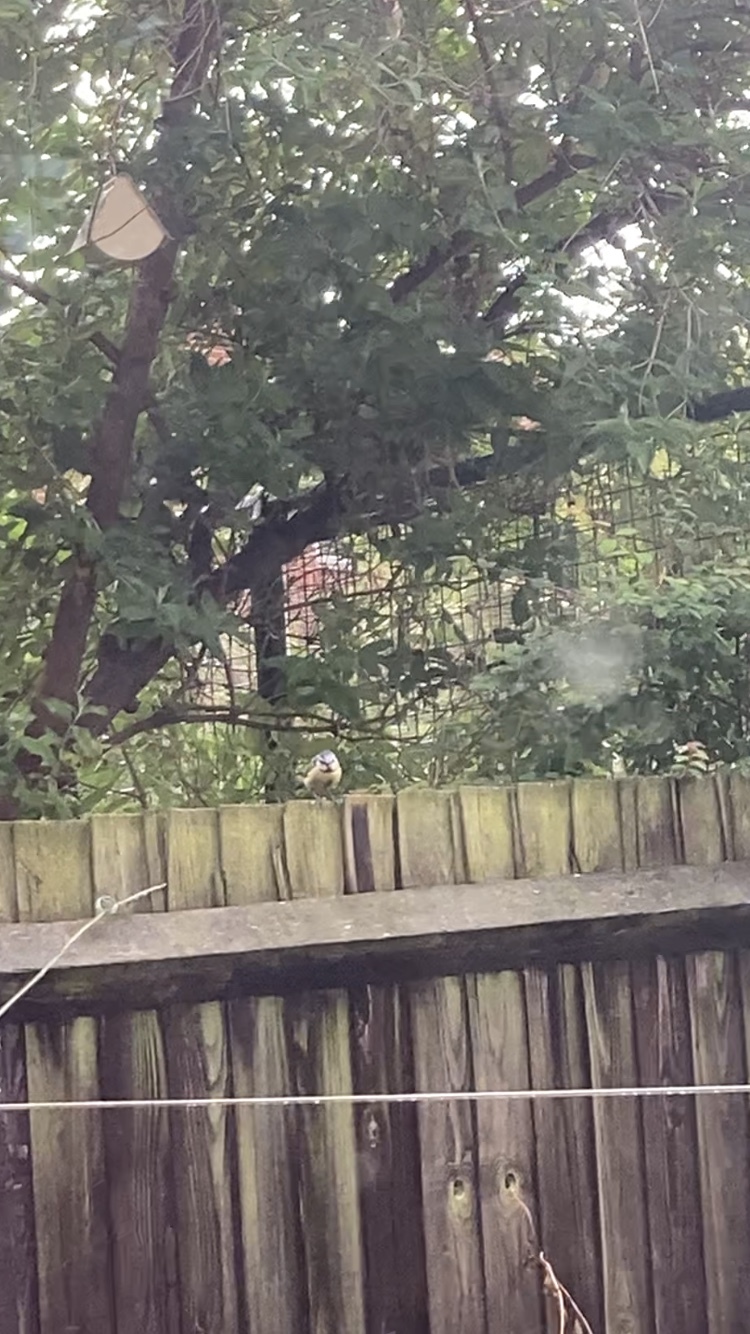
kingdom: Animalia
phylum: Chordata
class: Aves
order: Passeriformes
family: Paridae
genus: Cyanistes
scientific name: Cyanistes caeruleus
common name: Eurasian blue tit
